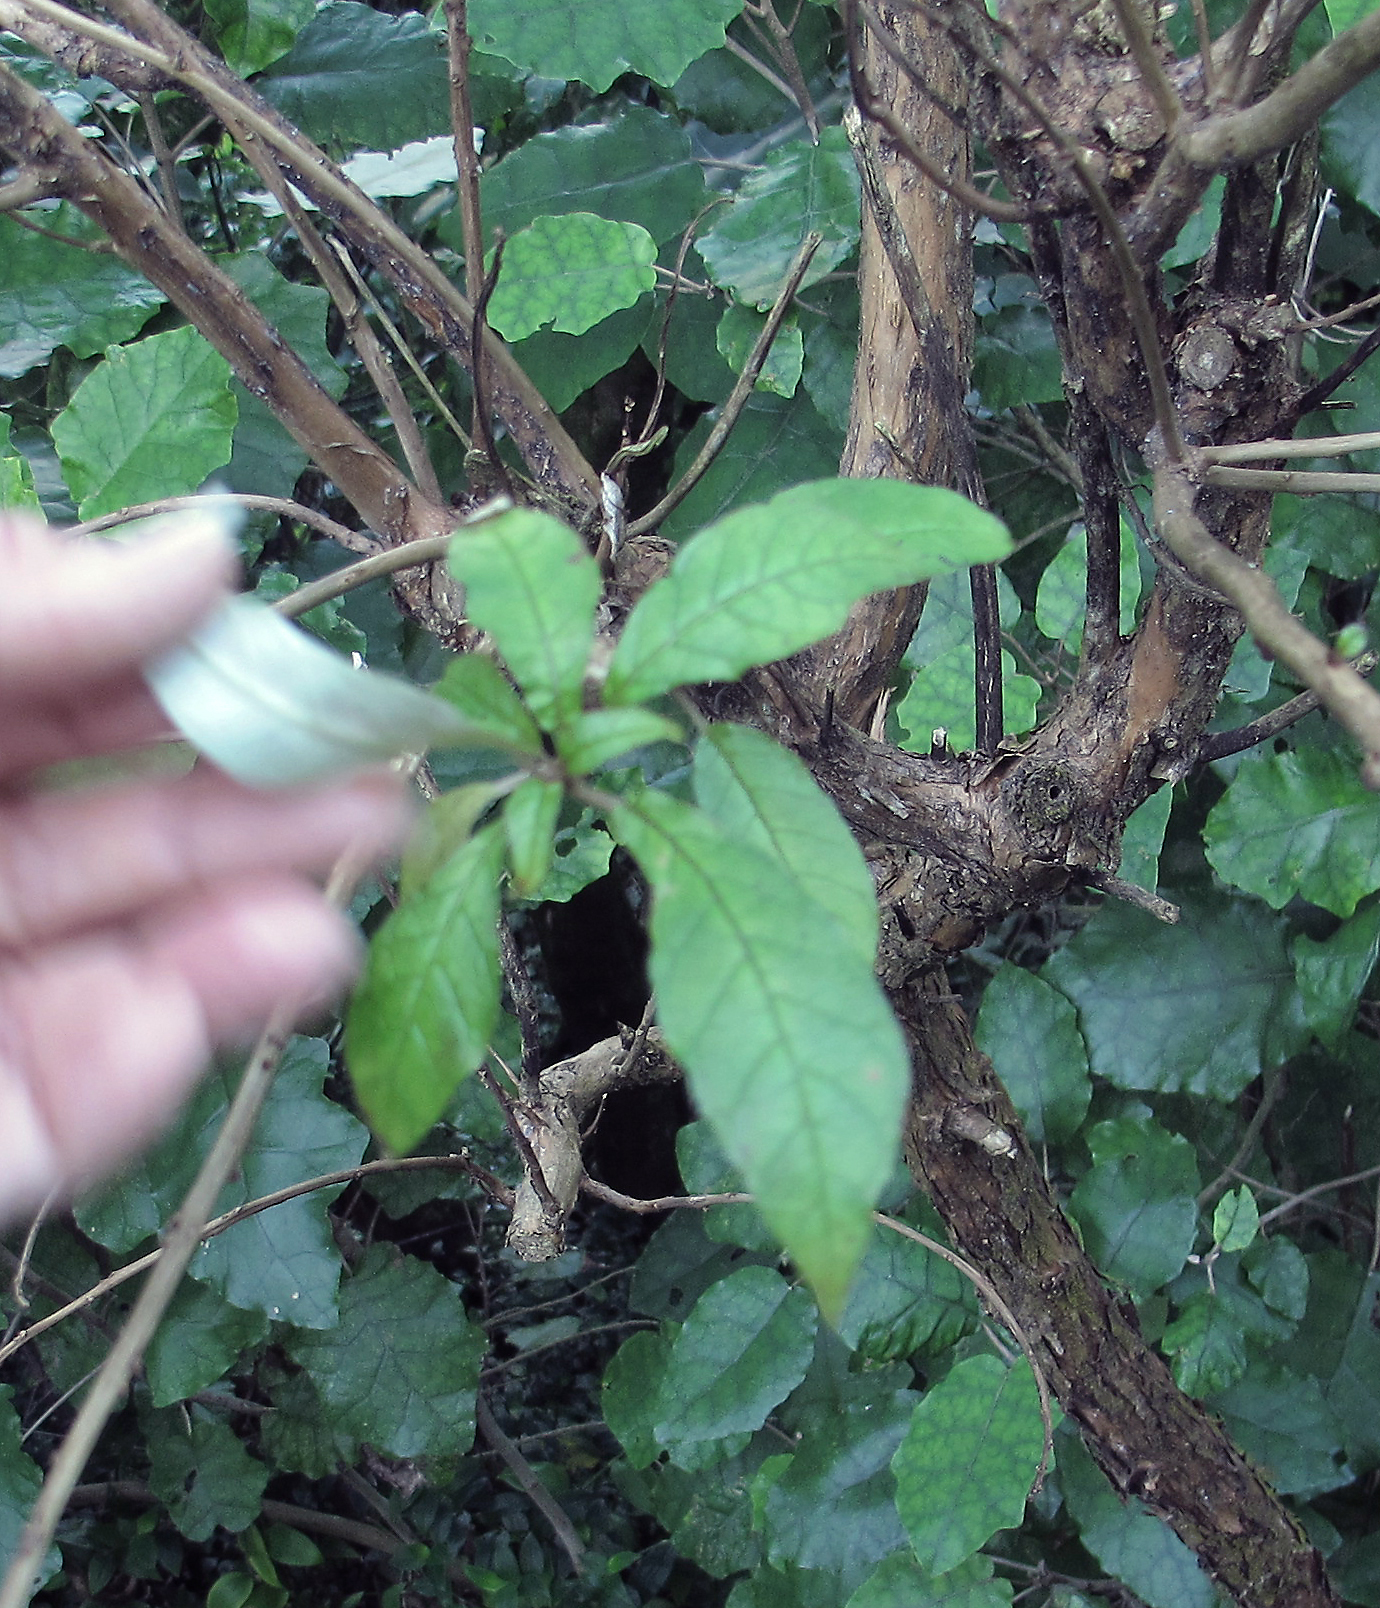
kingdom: Plantae
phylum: Tracheophyta
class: Magnoliopsida
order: Myrtales
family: Onagraceae
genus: Fuchsia
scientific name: Fuchsia excorticata
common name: Tree fuchsia
